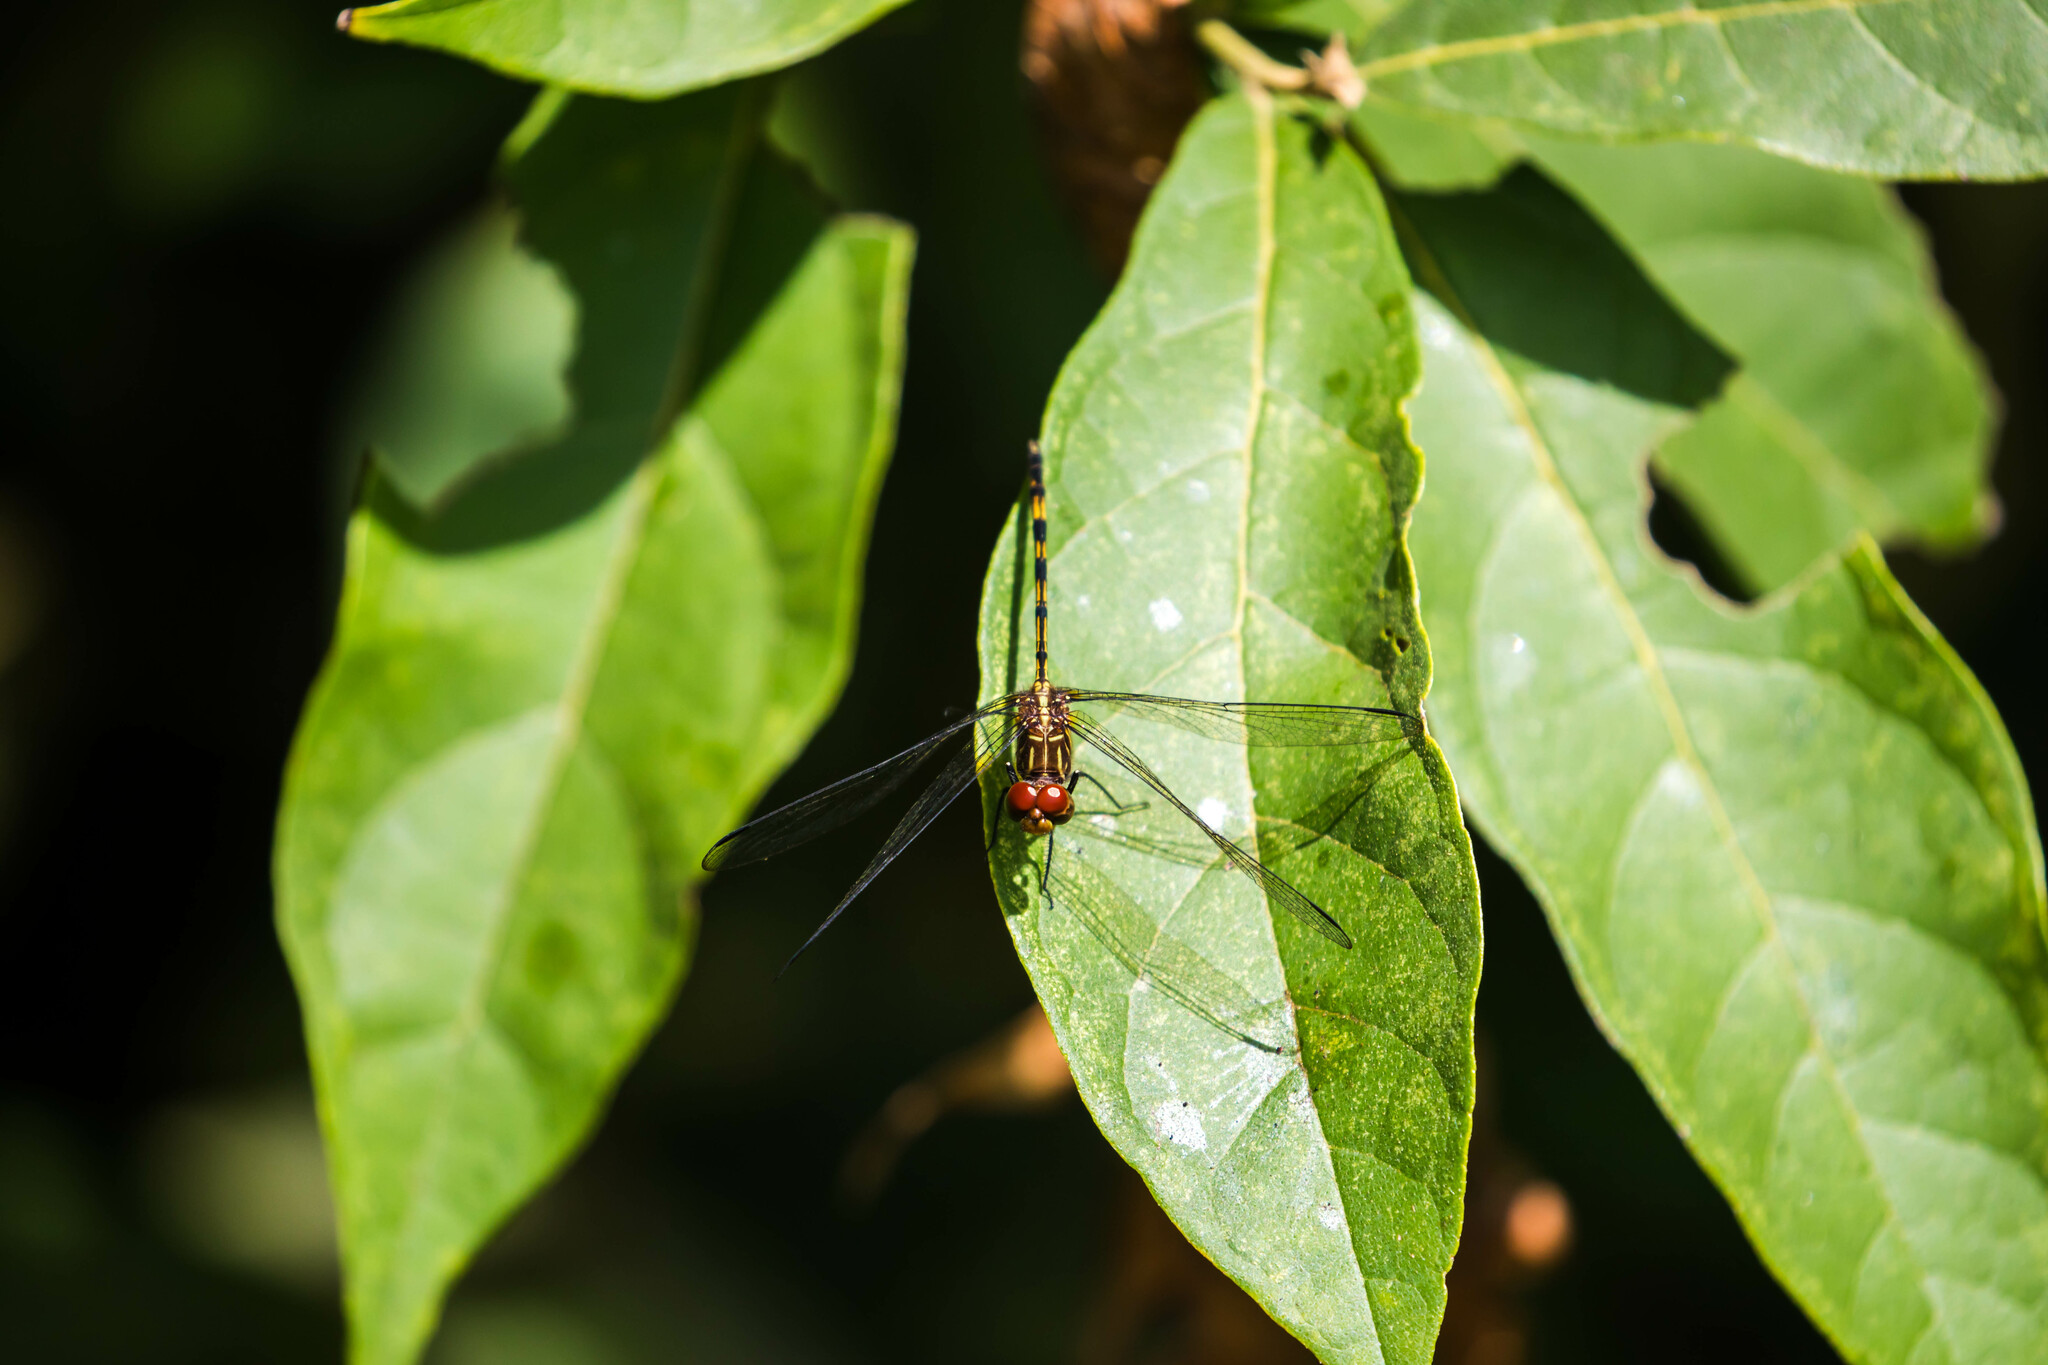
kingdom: Animalia
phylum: Arthropoda
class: Insecta
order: Odonata
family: Libellulidae
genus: Dythemis
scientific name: Dythemis sterilis
